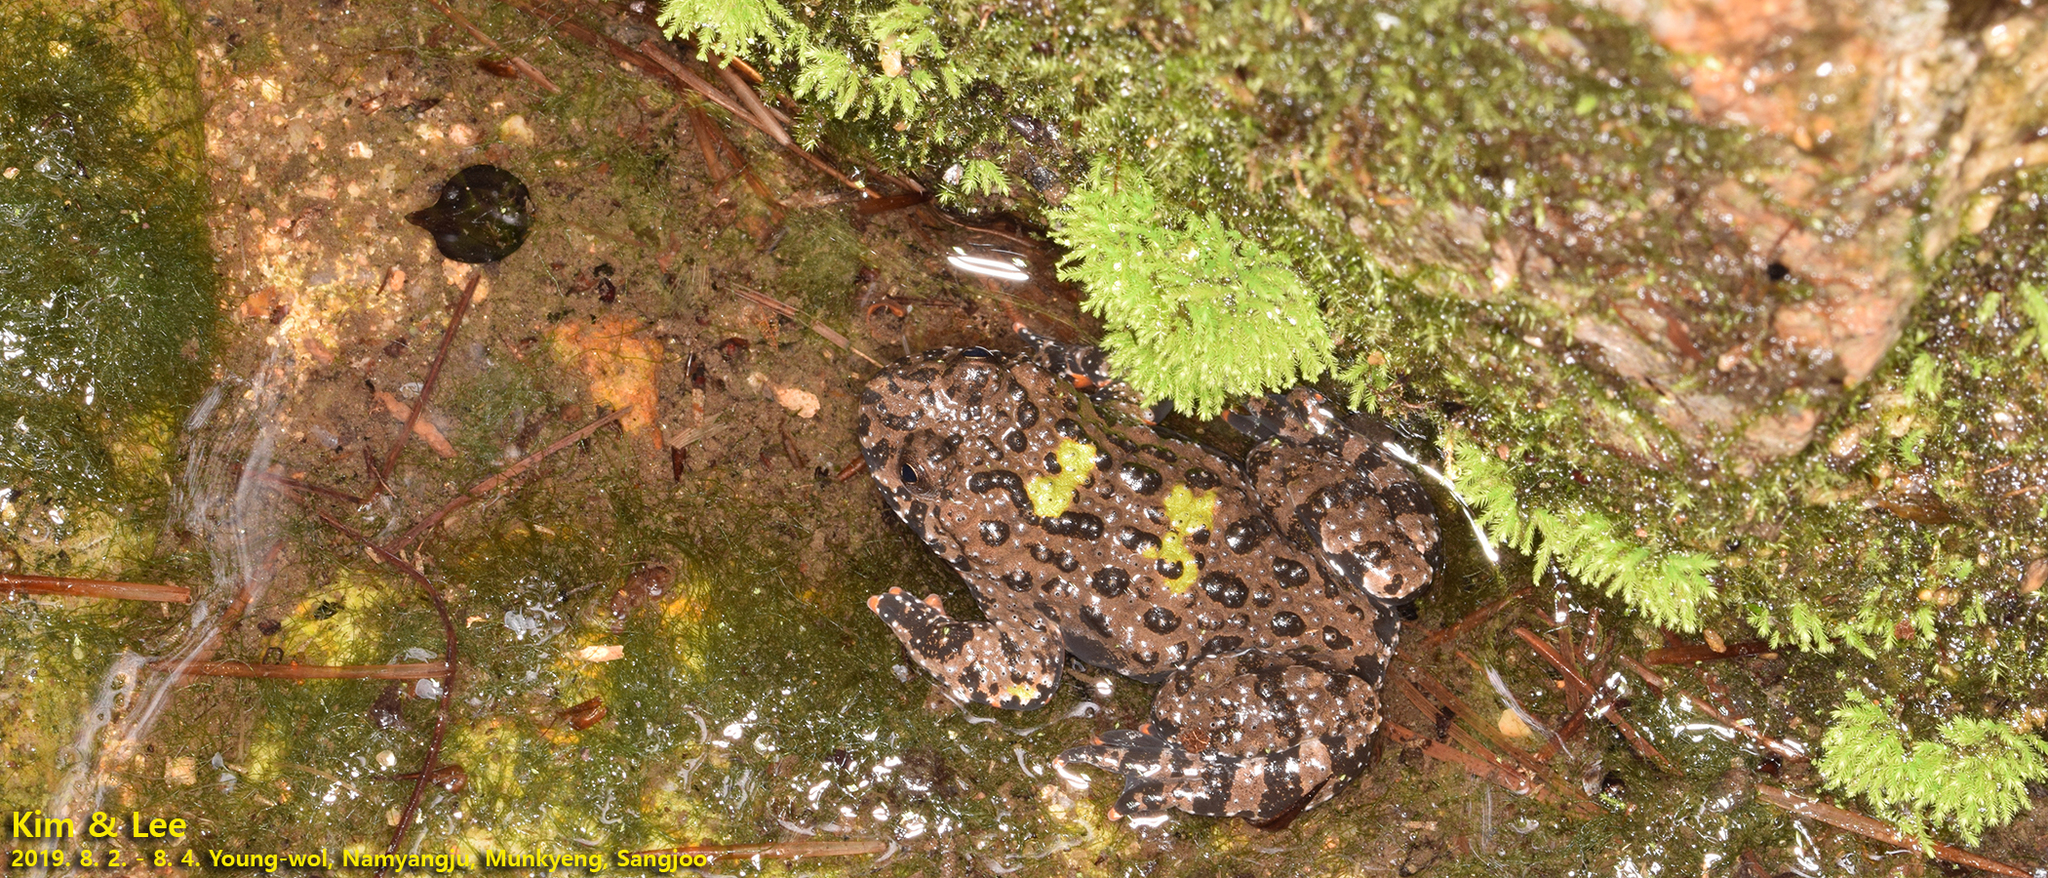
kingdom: Animalia
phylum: Chordata
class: Amphibia
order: Anura
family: Bombinatoridae
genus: Bombina
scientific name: Bombina orientalis
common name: Oriental firebelly toad
